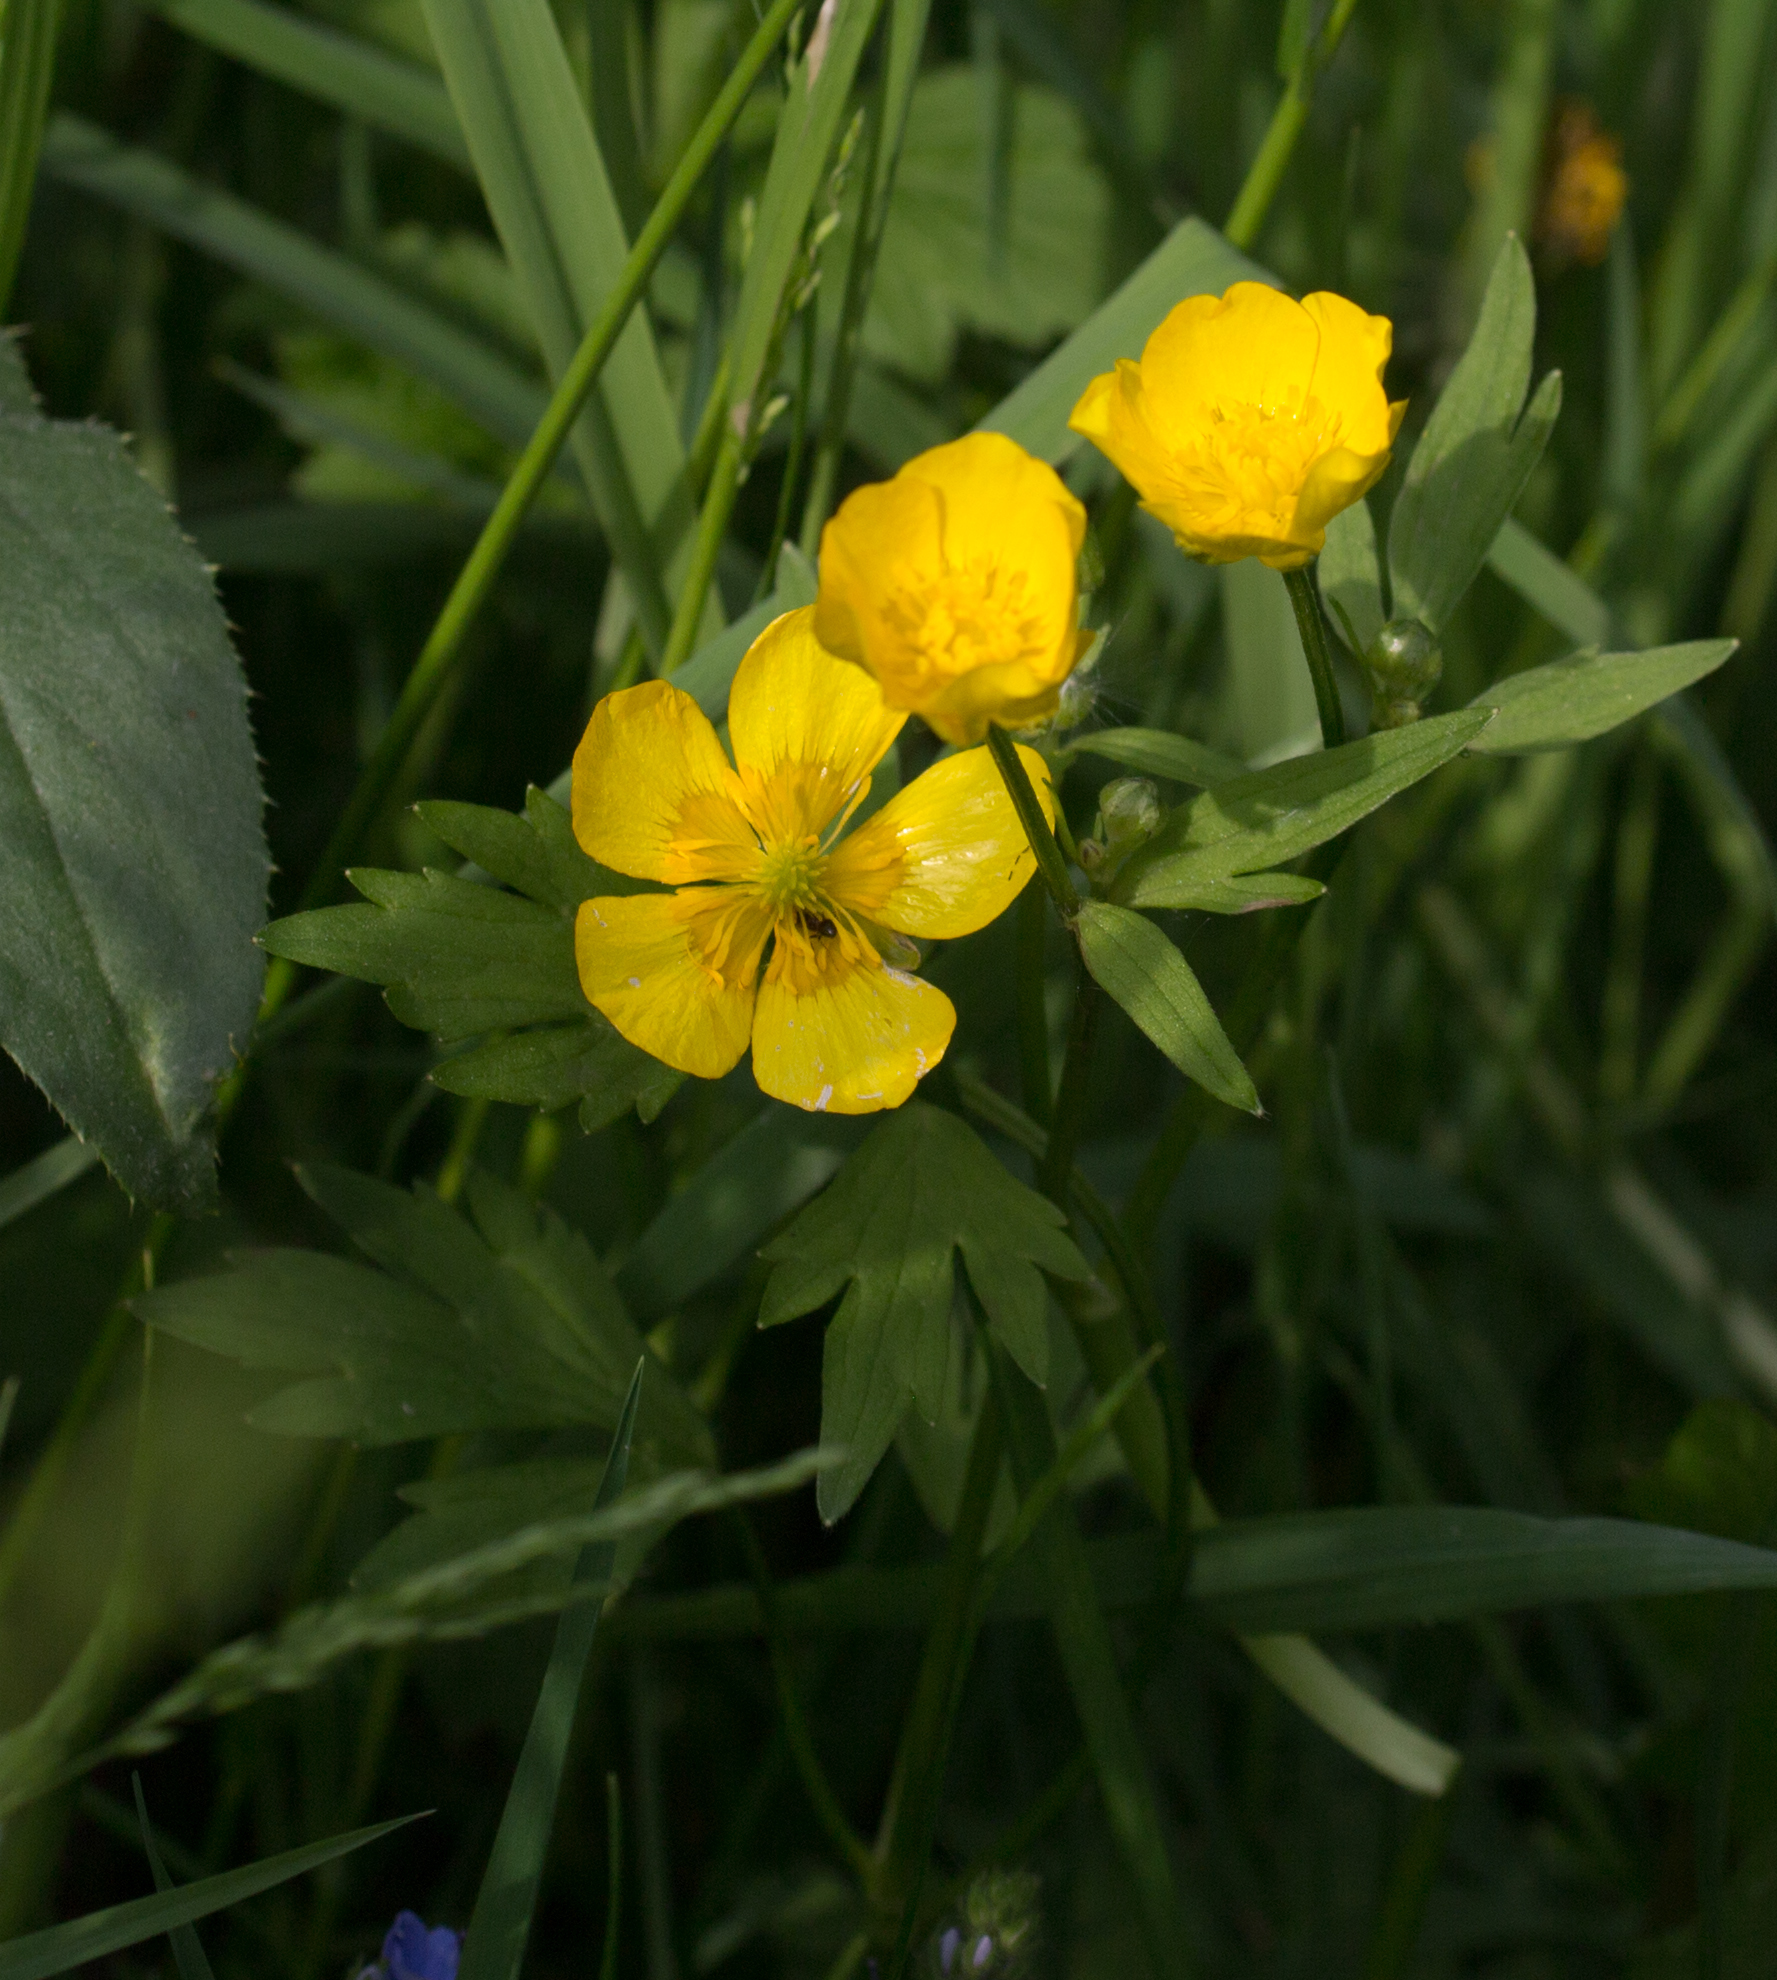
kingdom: Plantae
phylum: Tracheophyta
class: Magnoliopsida
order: Ranunculales
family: Ranunculaceae
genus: Ranunculus
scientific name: Ranunculus repens
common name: Creeping buttercup
